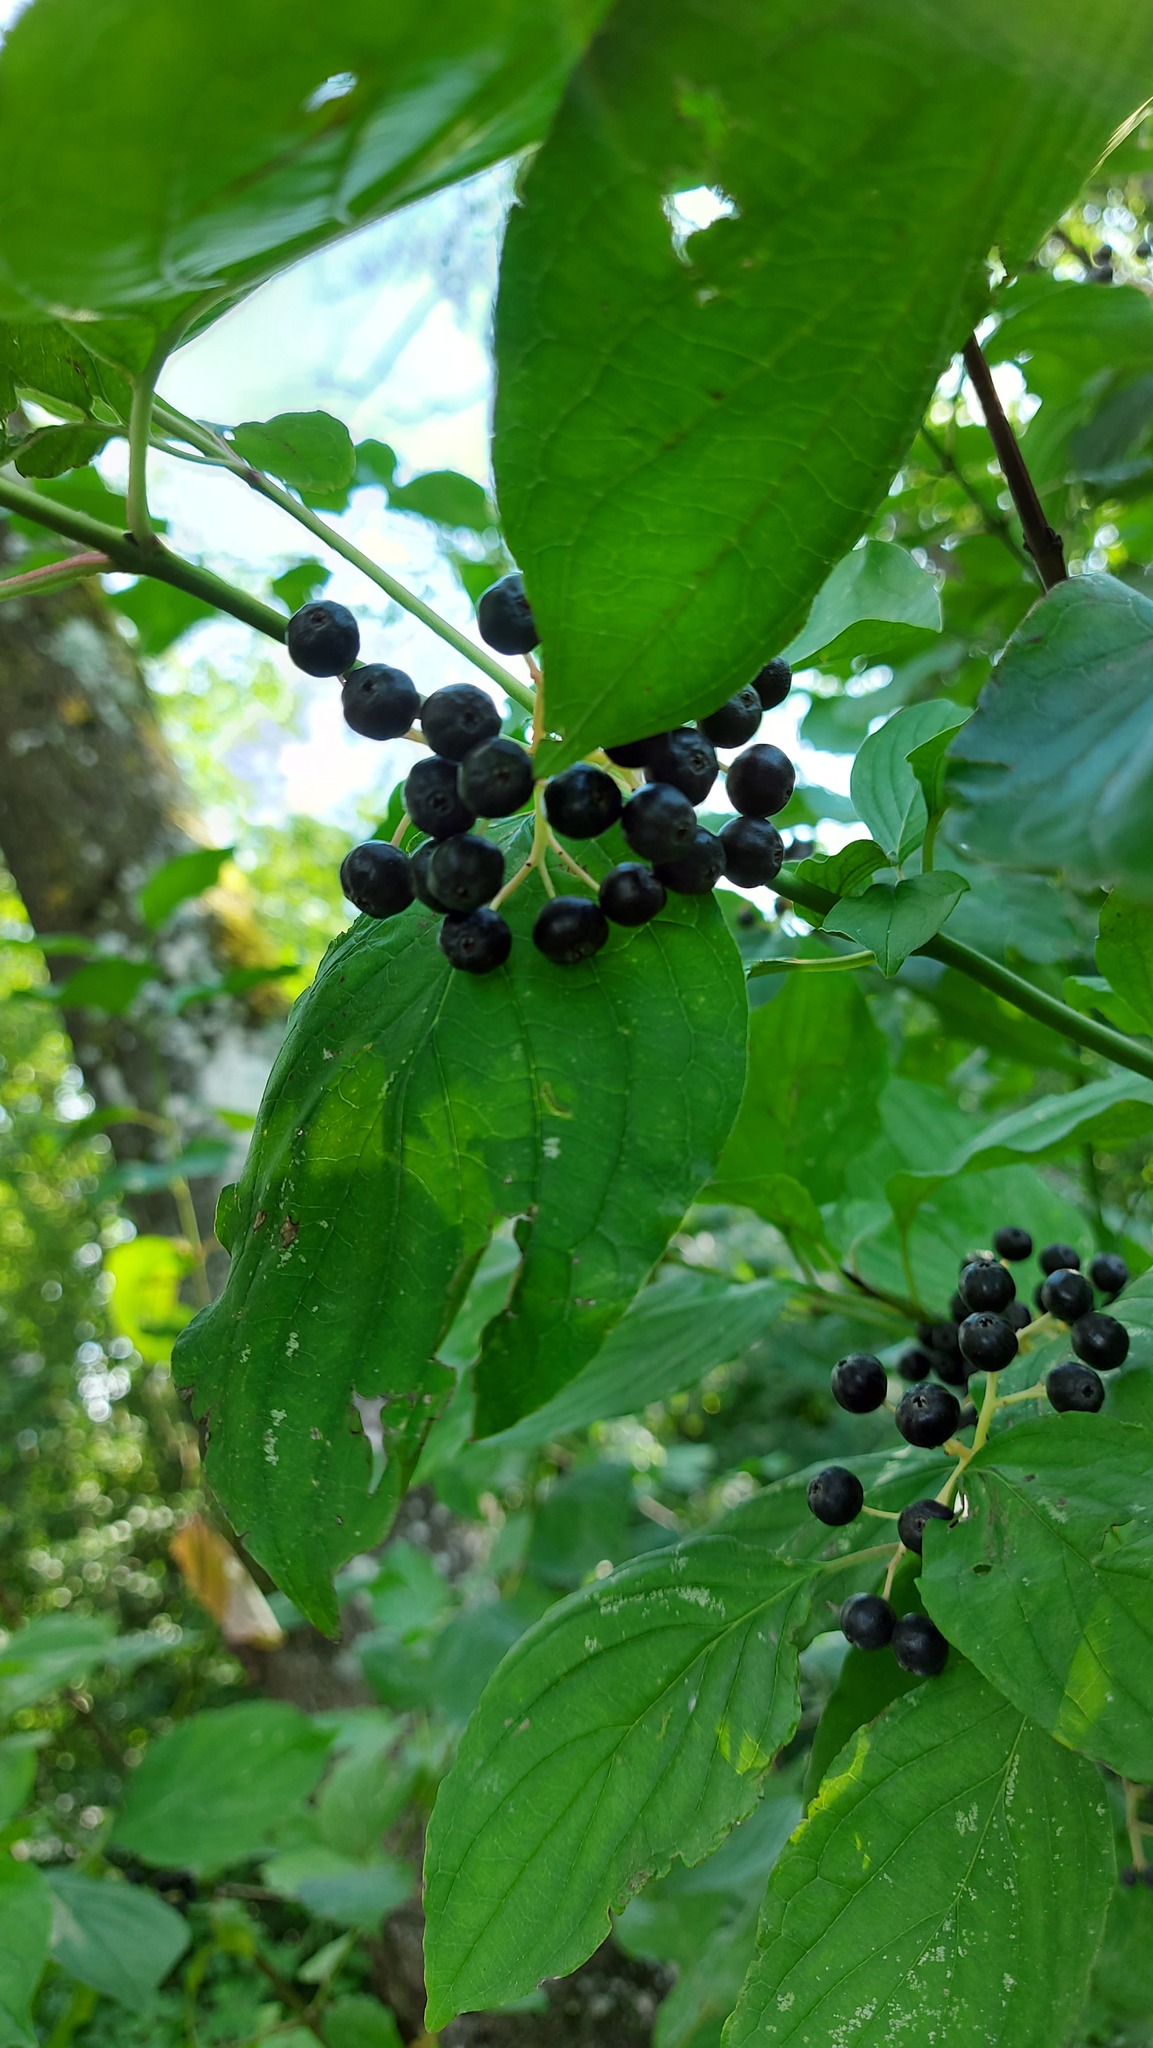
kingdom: Plantae
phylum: Tracheophyta
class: Magnoliopsida
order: Cornales
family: Cornaceae
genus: Cornus
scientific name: Cornus sanguinea
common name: Dogwood
